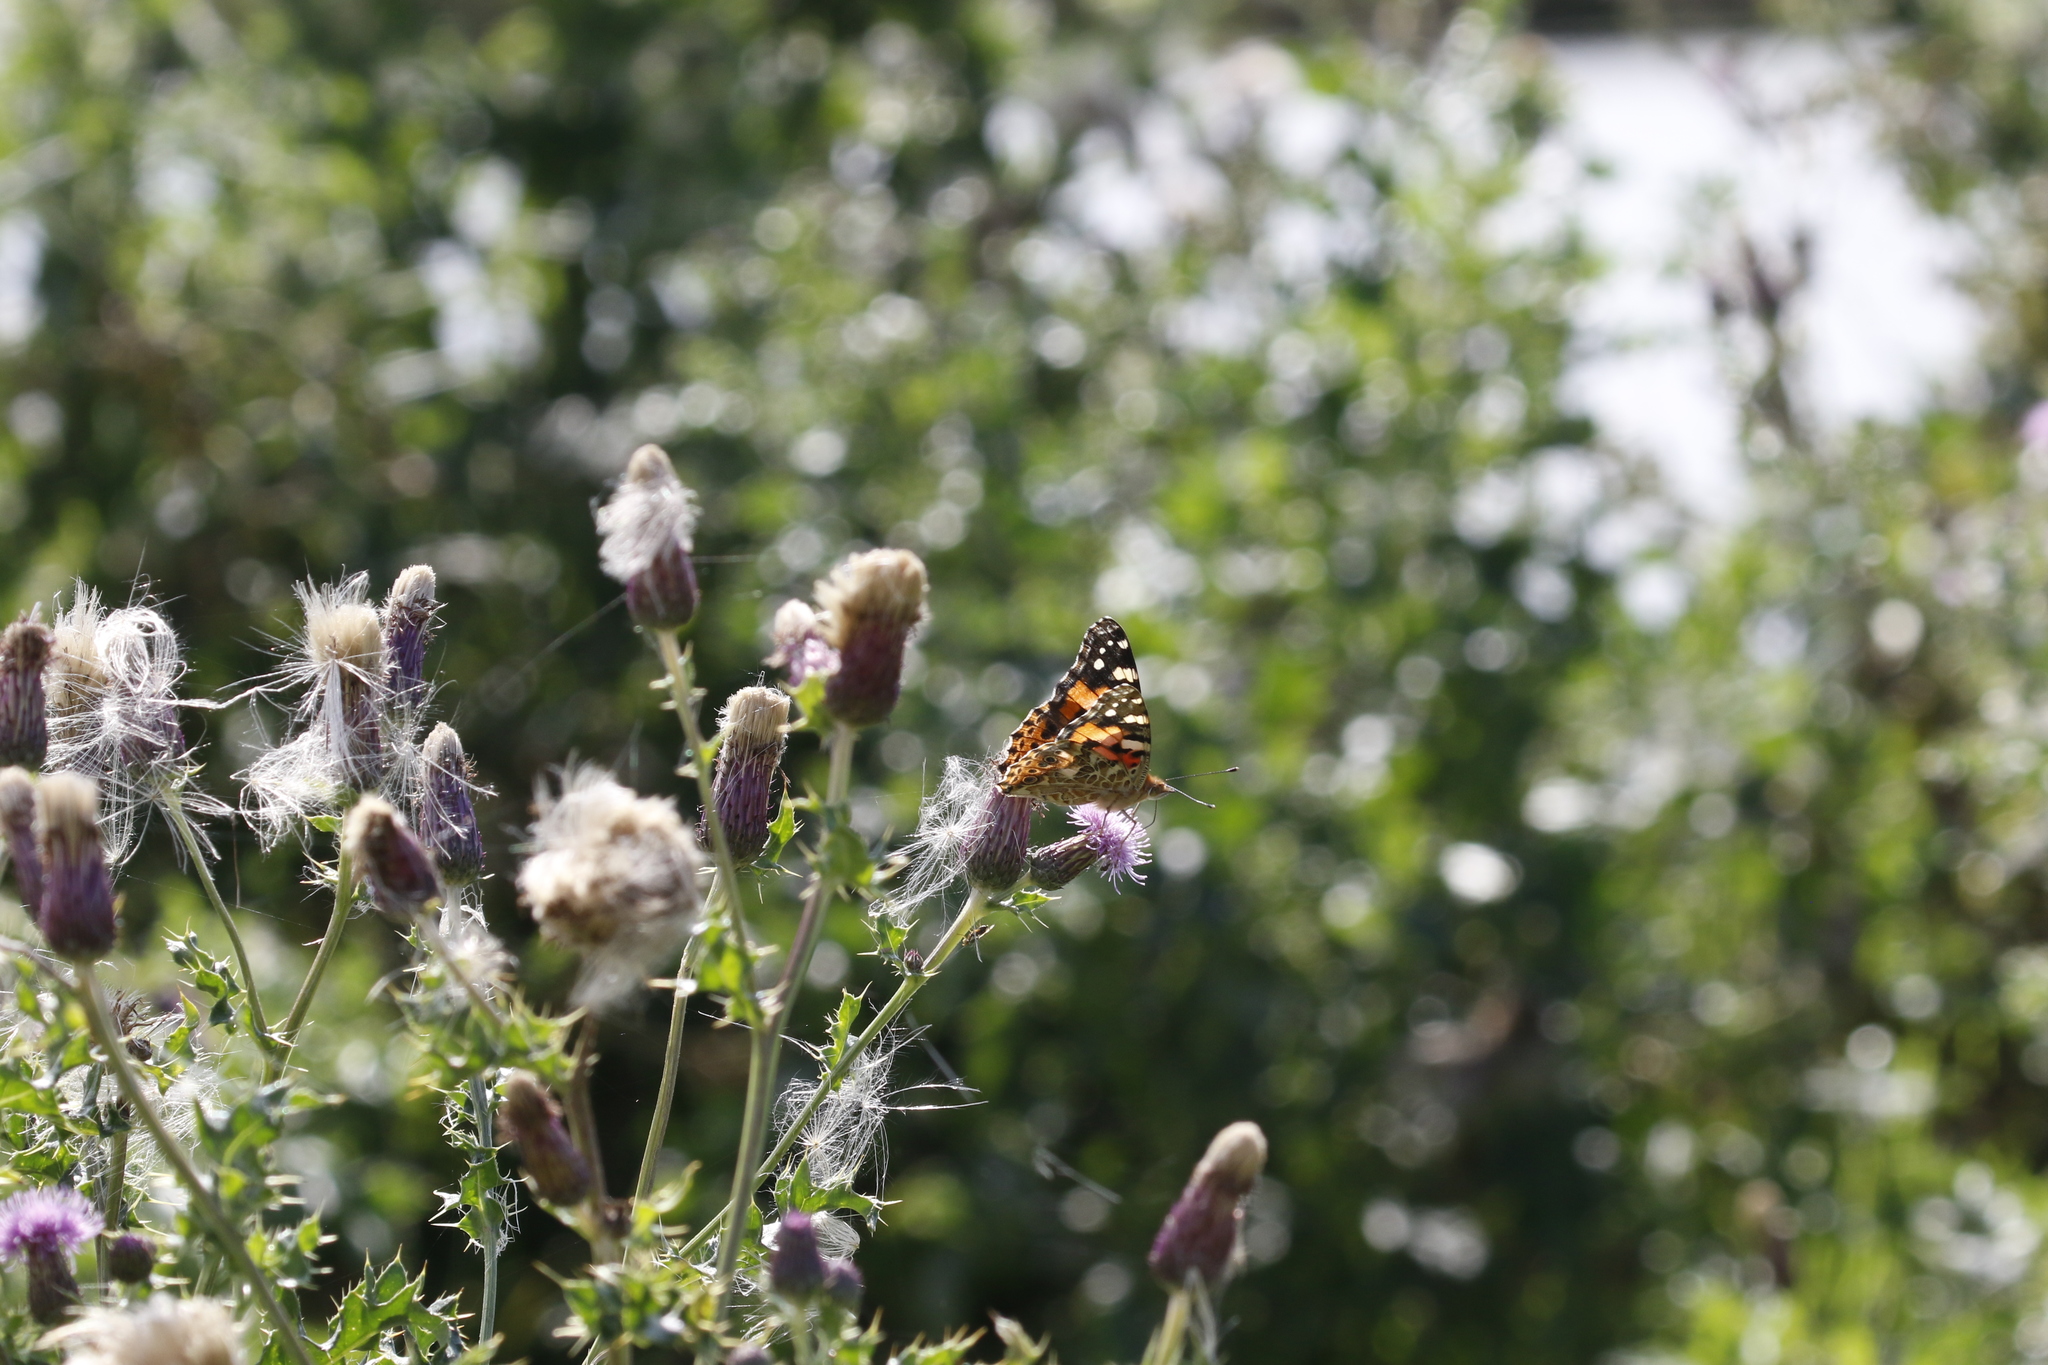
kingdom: Animalia
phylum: Arthropoda
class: Insecta
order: Lepidoptera
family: Nymphalidae
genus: Vanessa
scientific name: Vanessa cardui
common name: Painted lady
